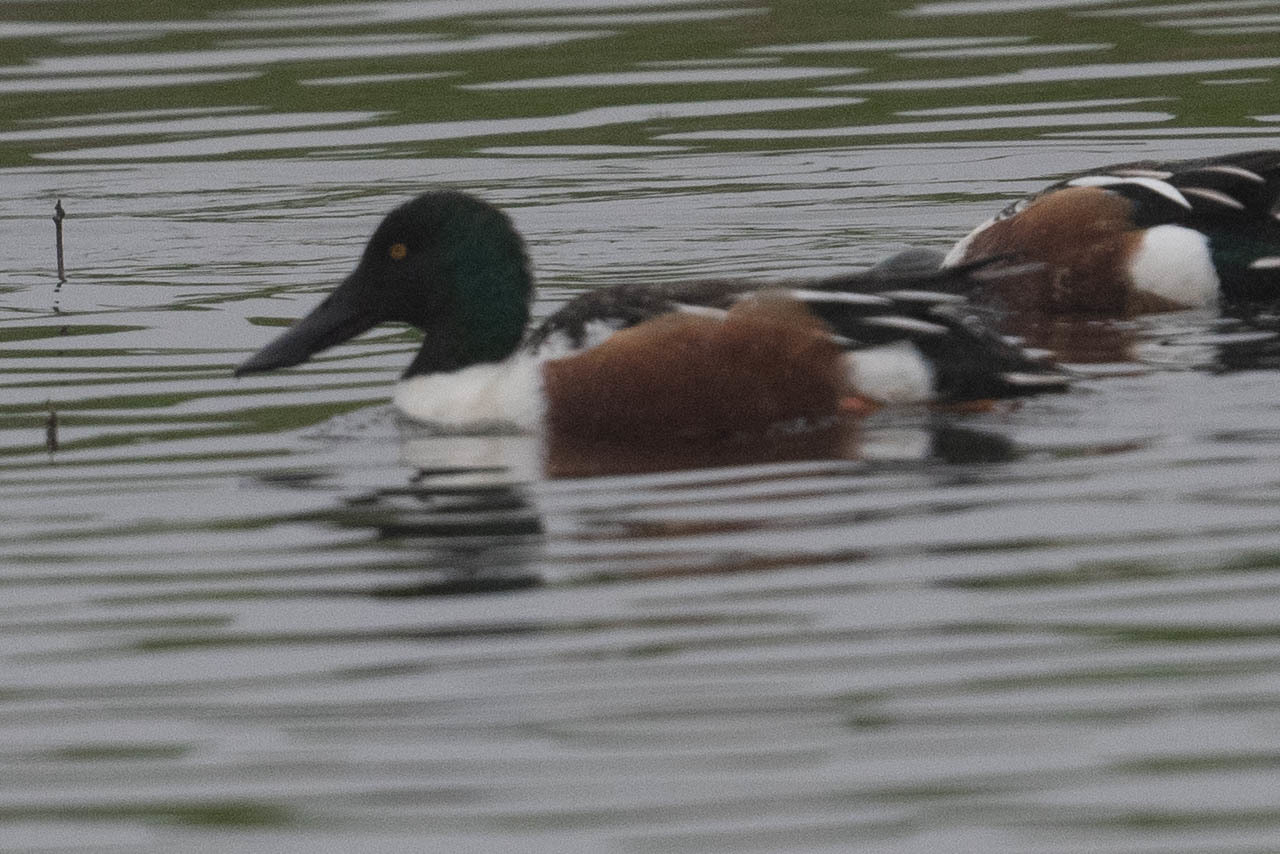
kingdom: Animalia
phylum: Chordata
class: Aves
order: Anseriformes
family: Anatidae
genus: Spatula
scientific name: Spatula clypeata
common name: Northern shoveler
